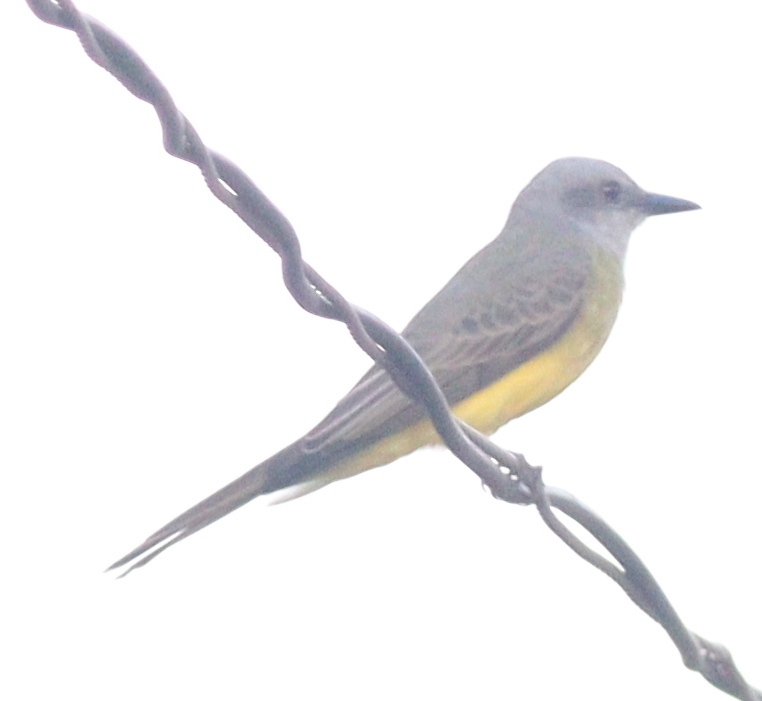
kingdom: Animalia
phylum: Chordata
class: Aves
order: Passeriformes
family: Tyrannidae
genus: Tyrannus
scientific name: Tyrannus melancholicus
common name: Tropical kingbird
